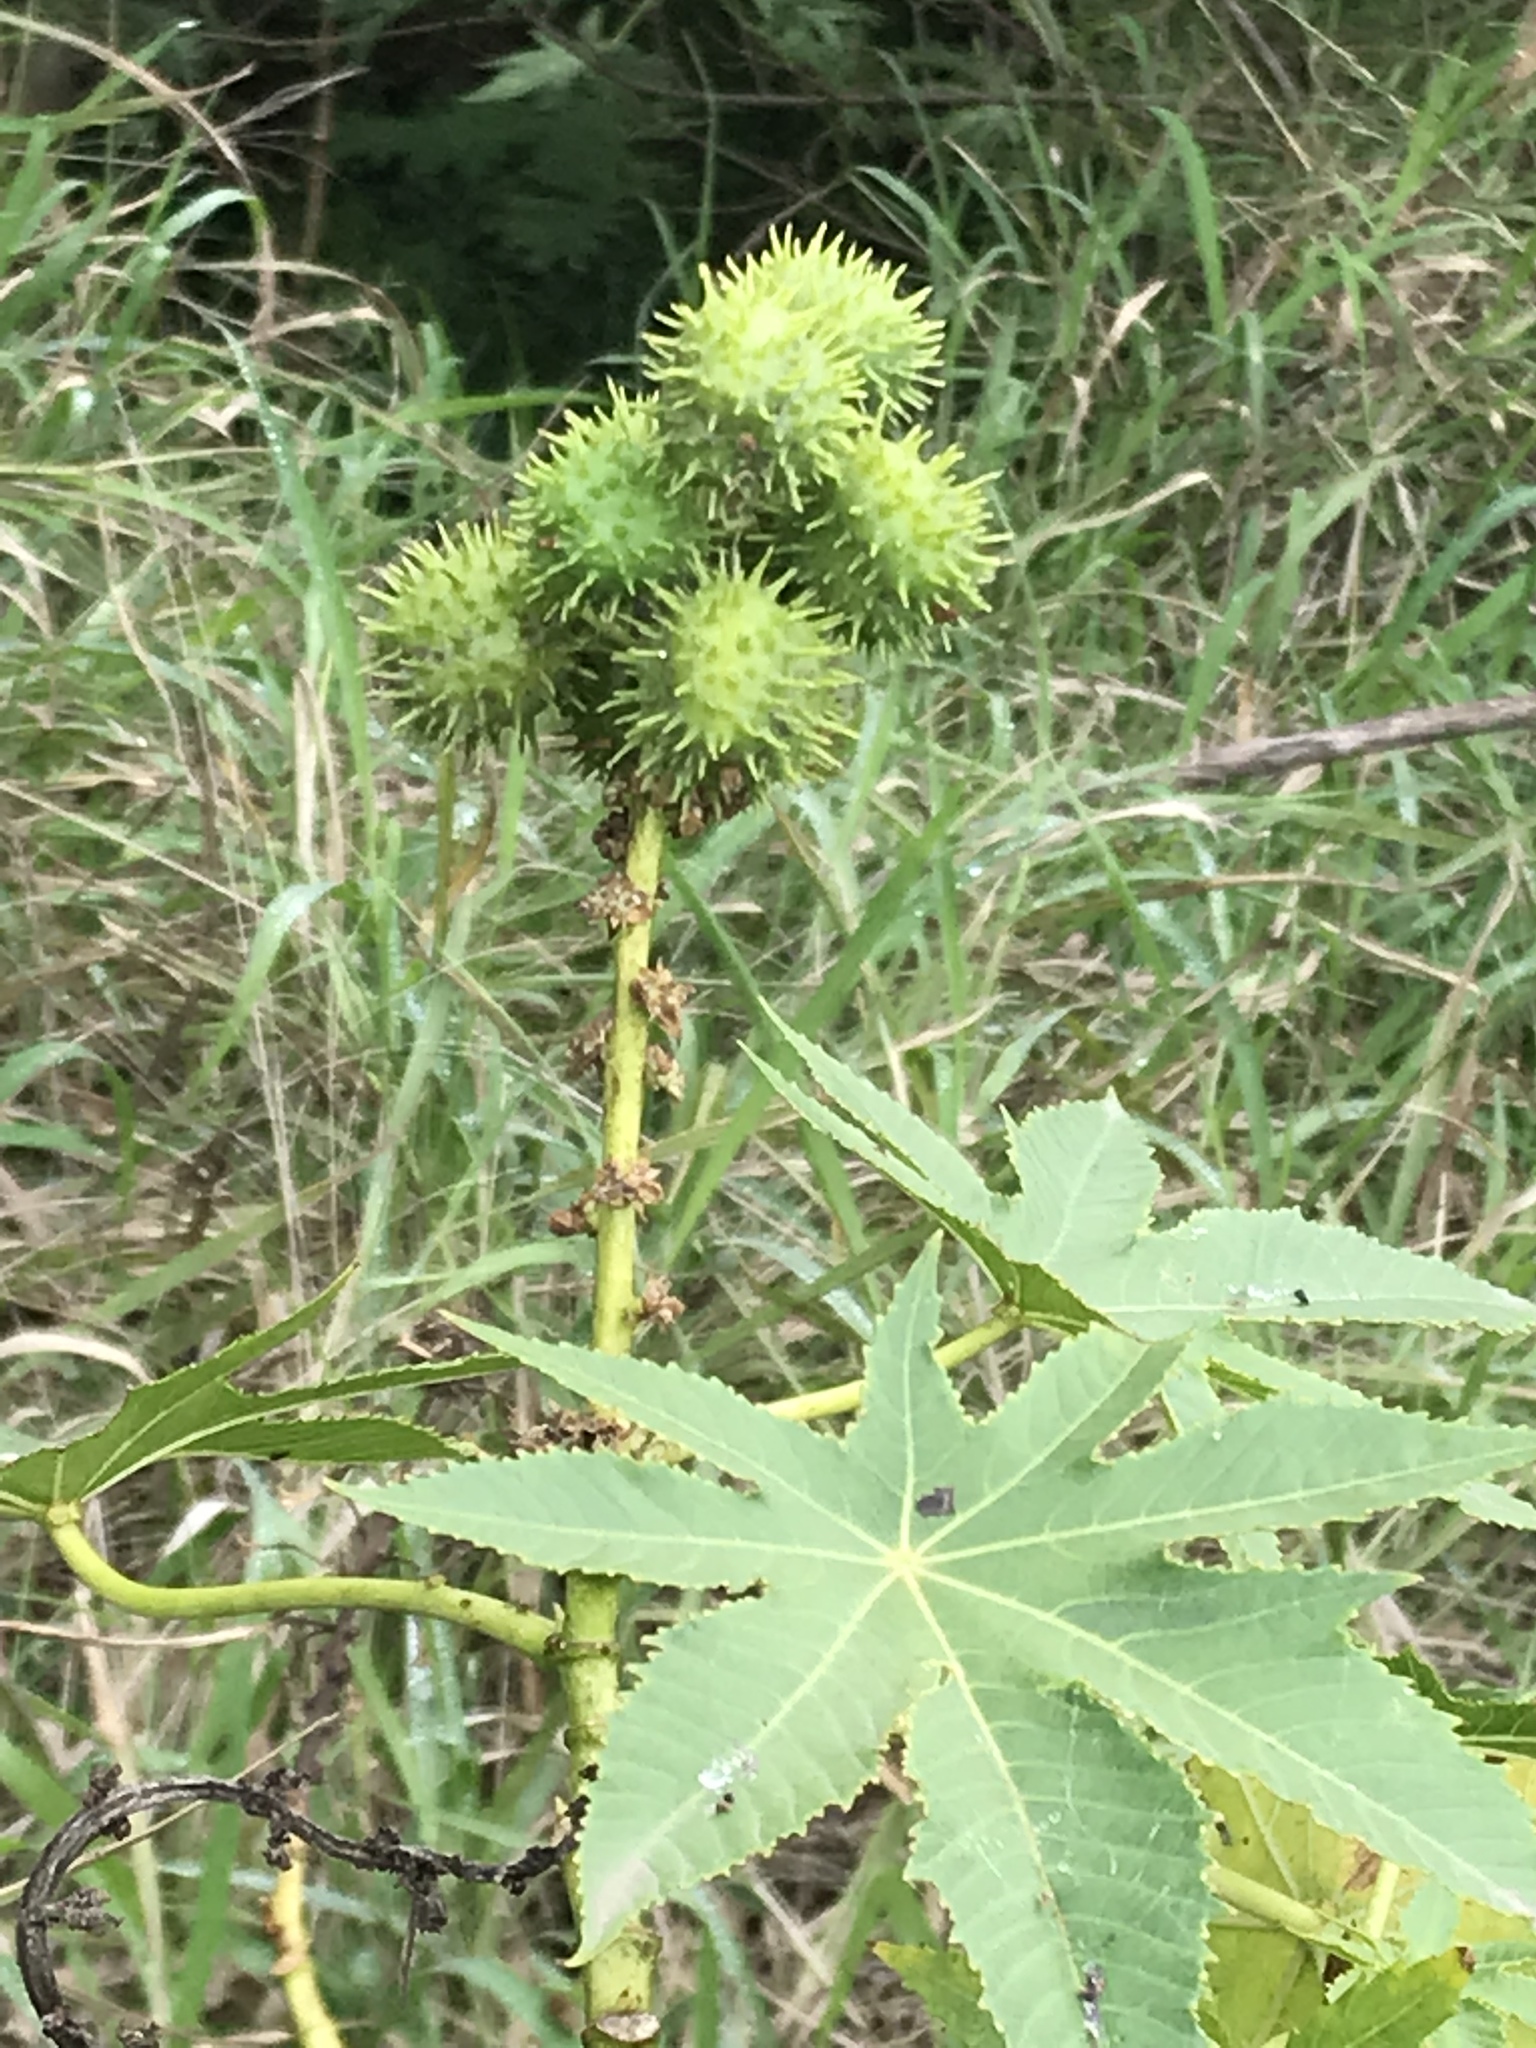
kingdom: Plantae
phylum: Tracheophyta
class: Magnoliopsida
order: Malpighiales
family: Euphorbiaceae
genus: Ricinus
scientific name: Ricinus communis
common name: Castor-oil-plant
